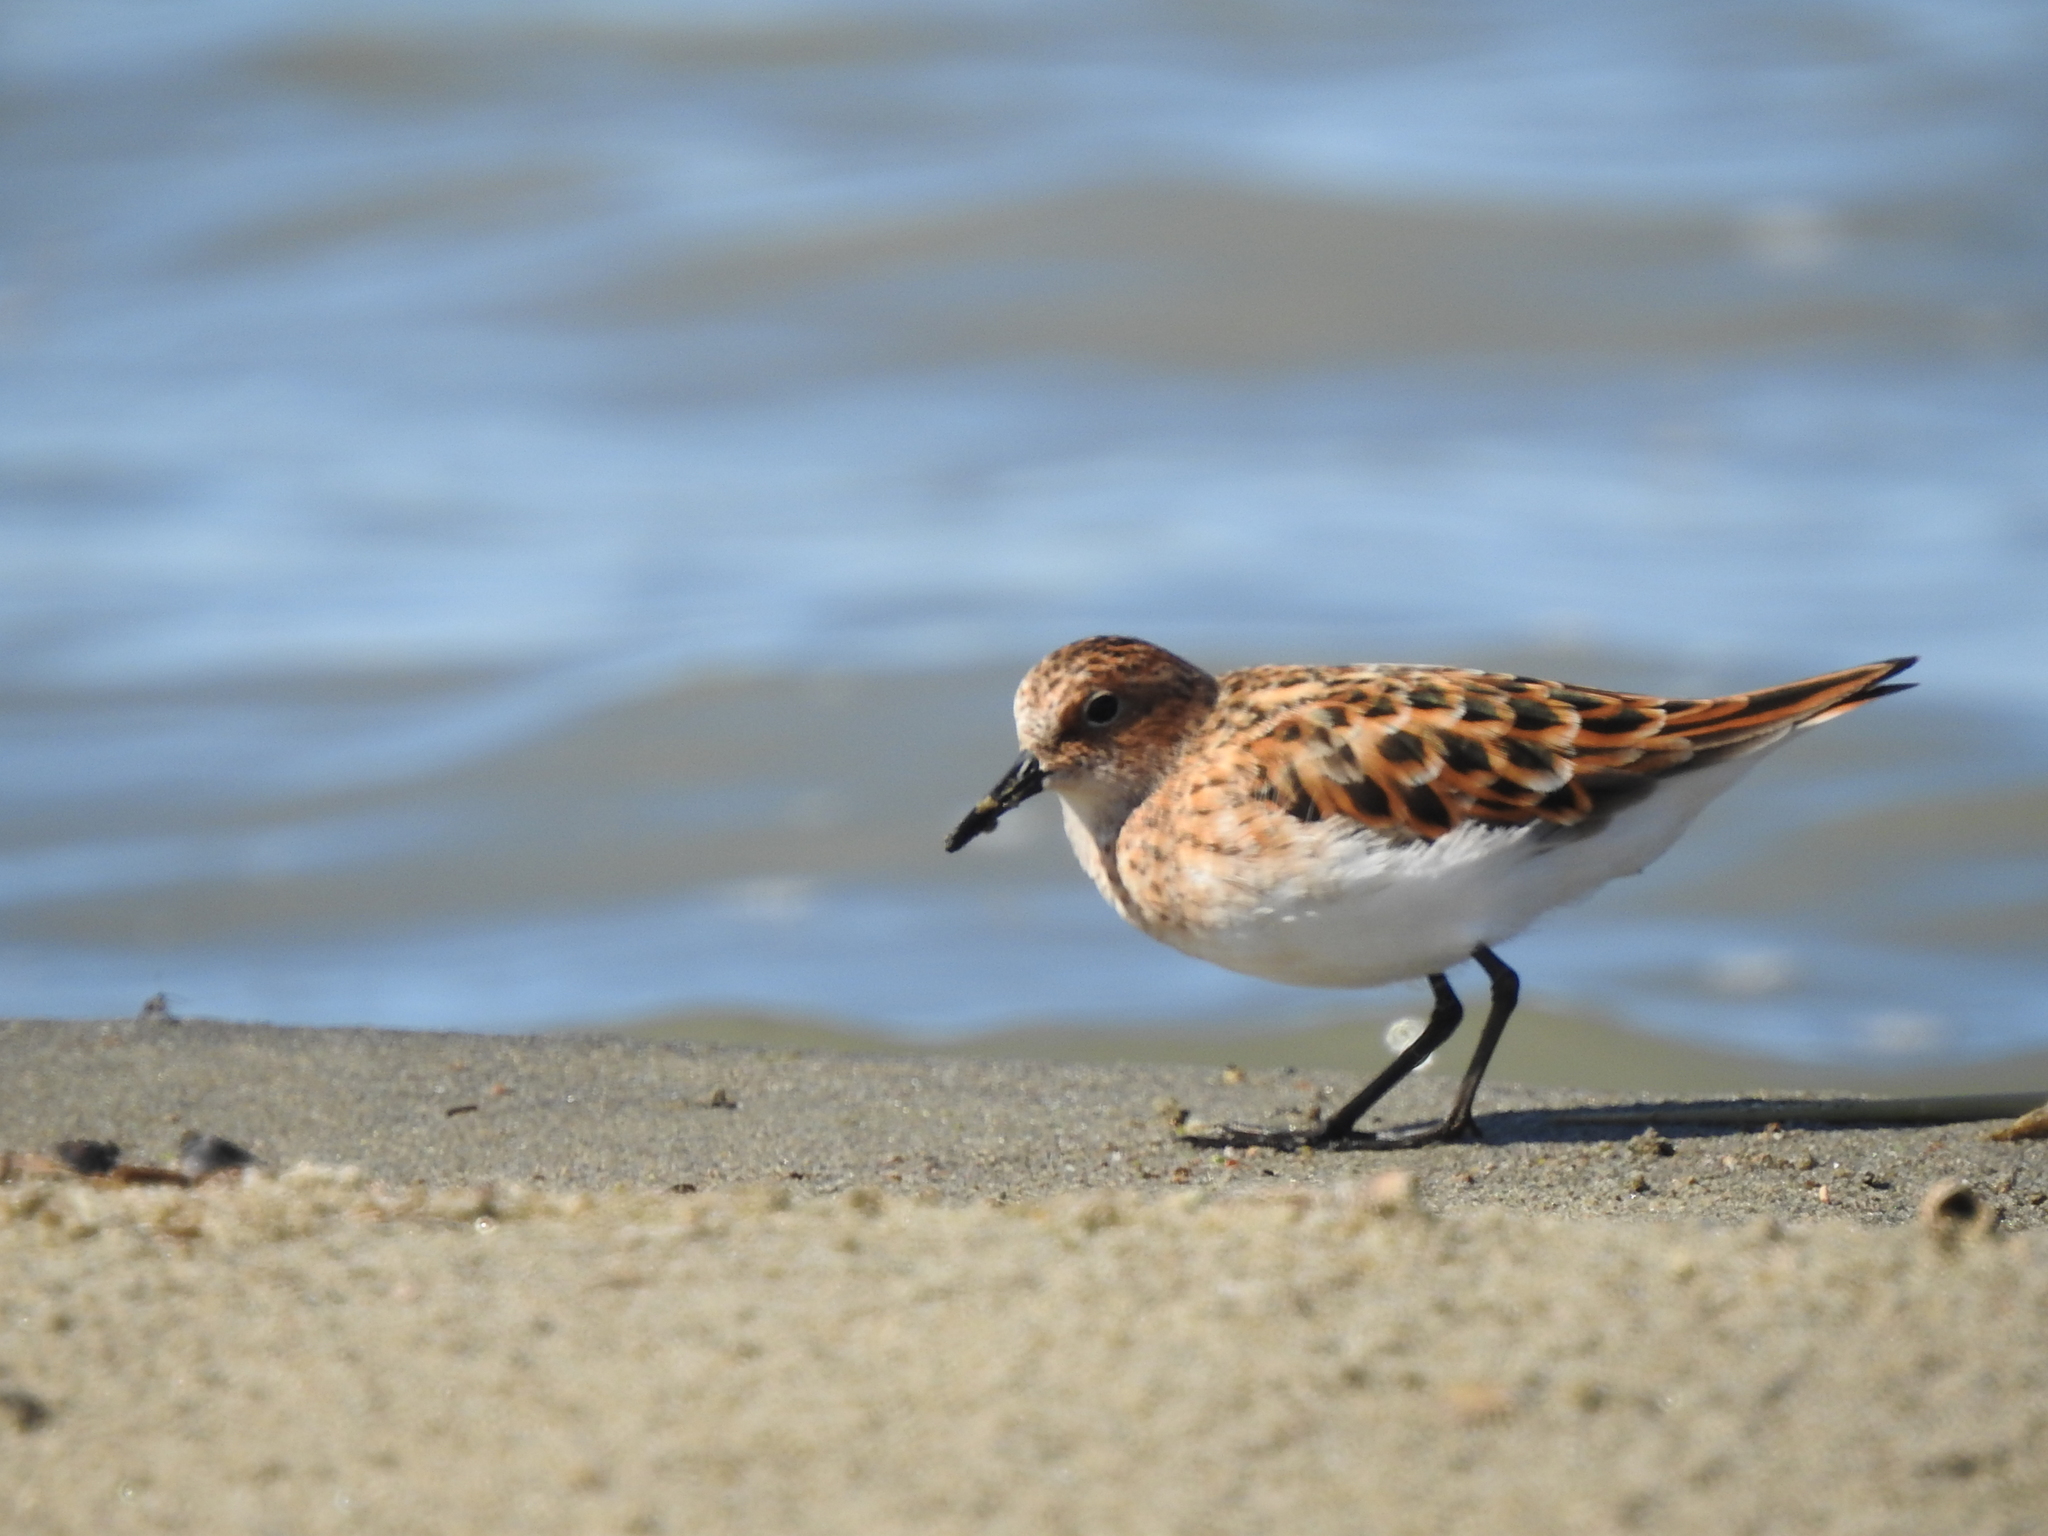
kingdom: Animalia
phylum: Chordata
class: Aves
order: Charadriiformes
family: Scolopacidae
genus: Calidris
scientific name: Calidris minuta
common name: Little stint
